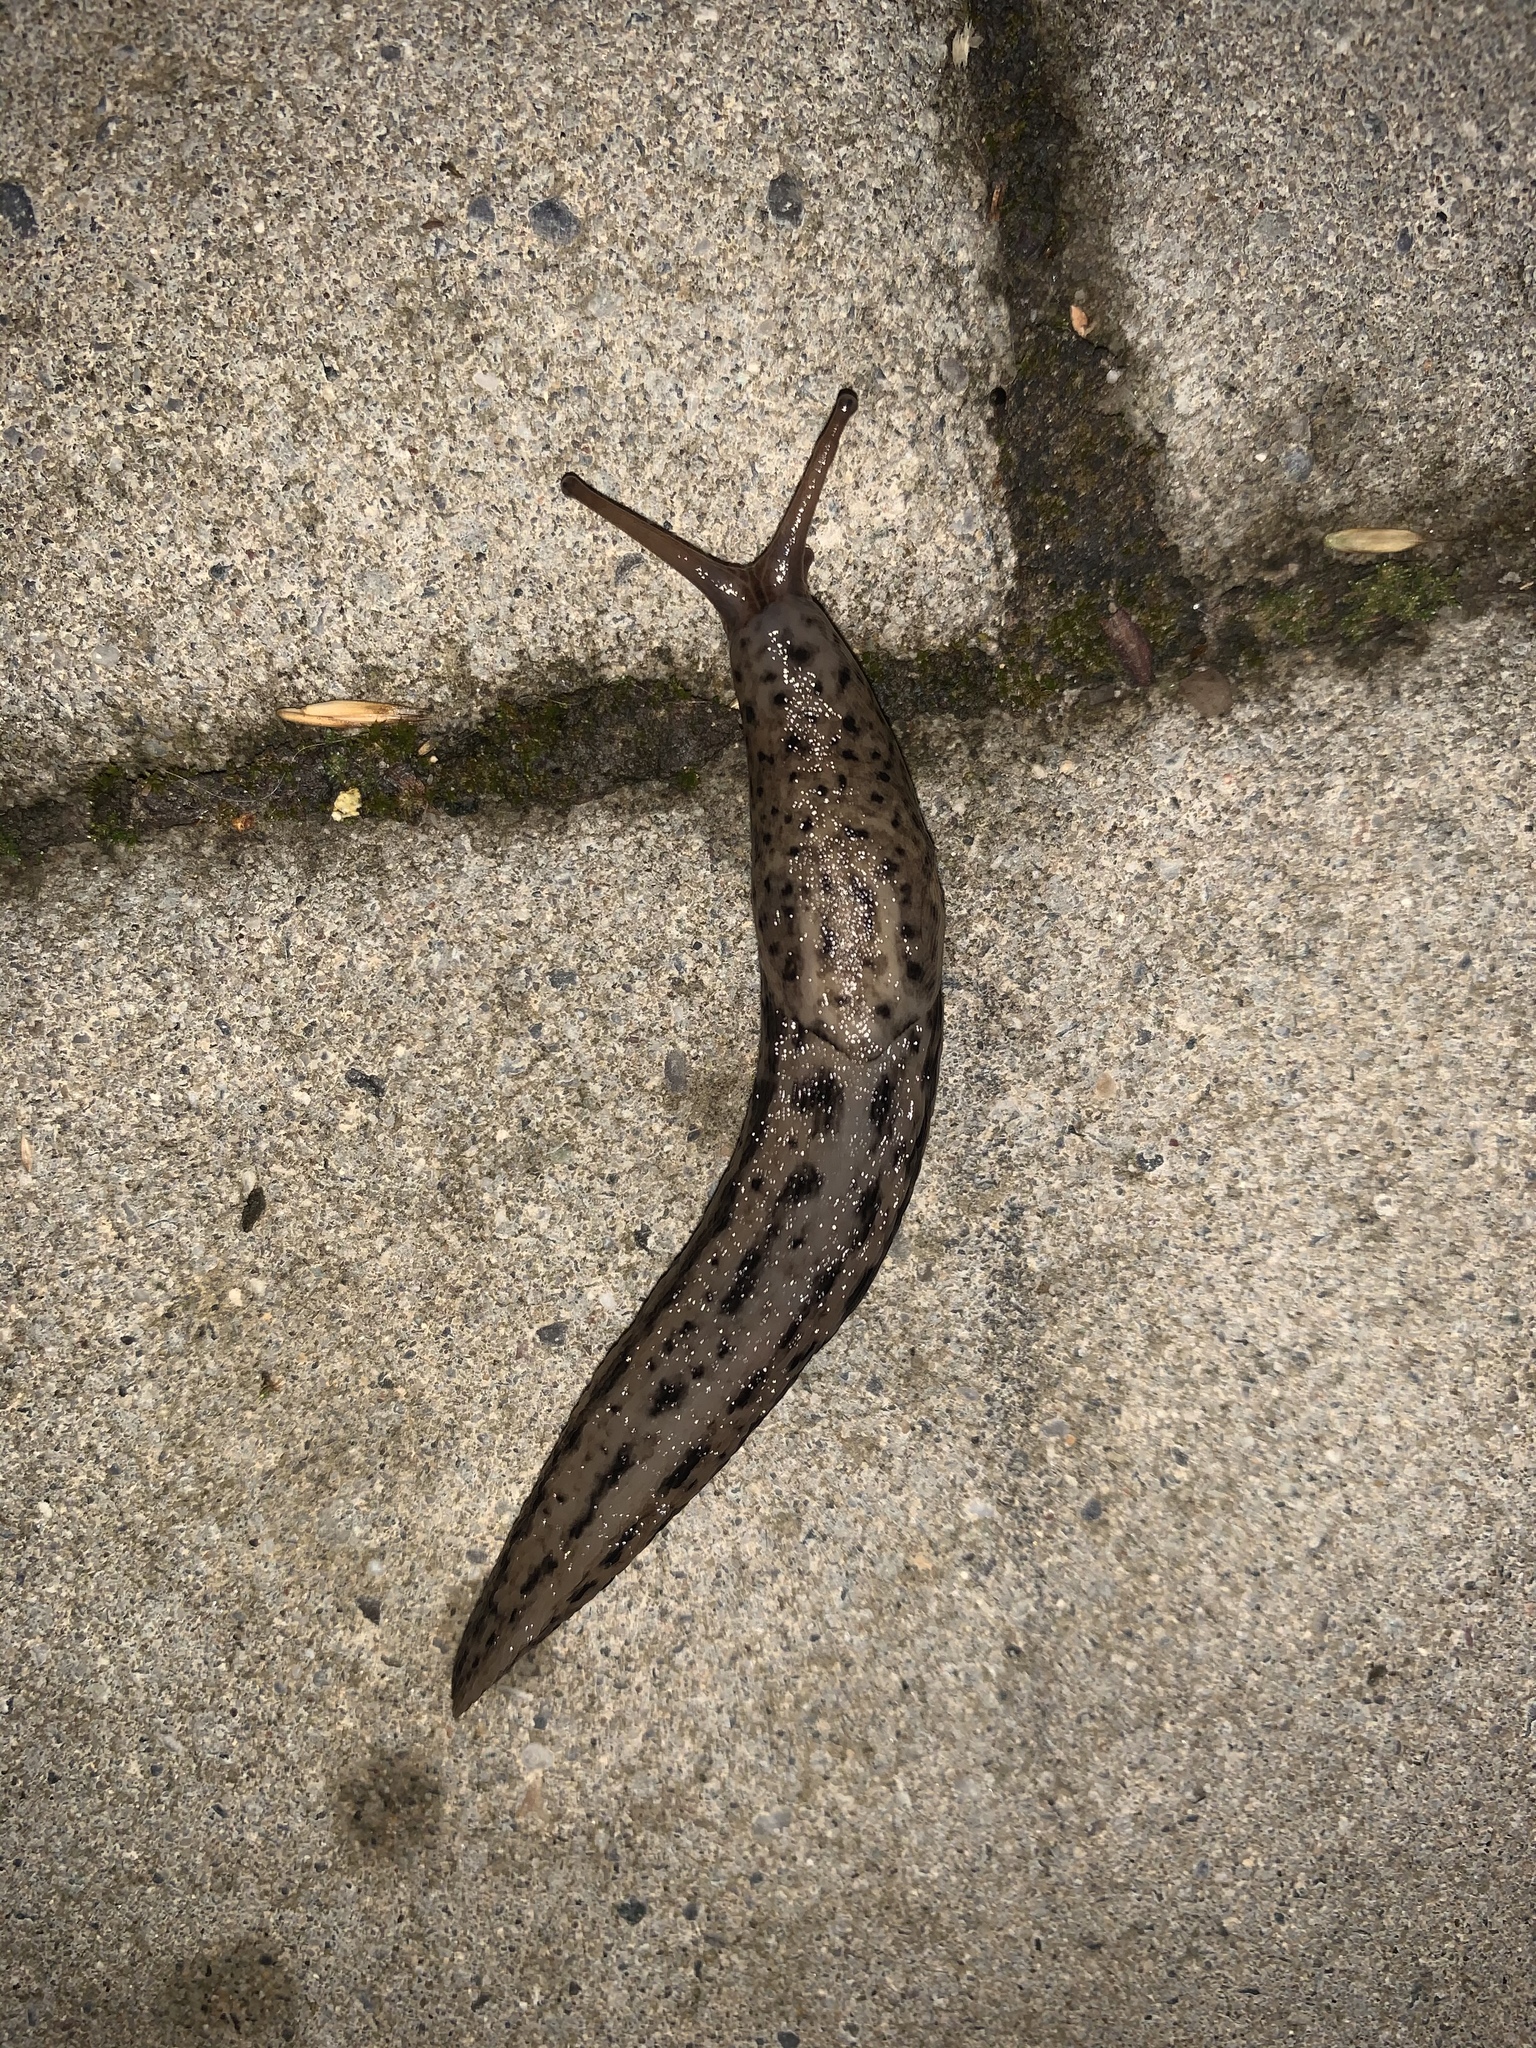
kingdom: Animalia
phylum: Mollusca
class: Gastropoda
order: Stylommatophora
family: Limacidae
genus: Limax
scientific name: Limax maximus
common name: Great grey slug
